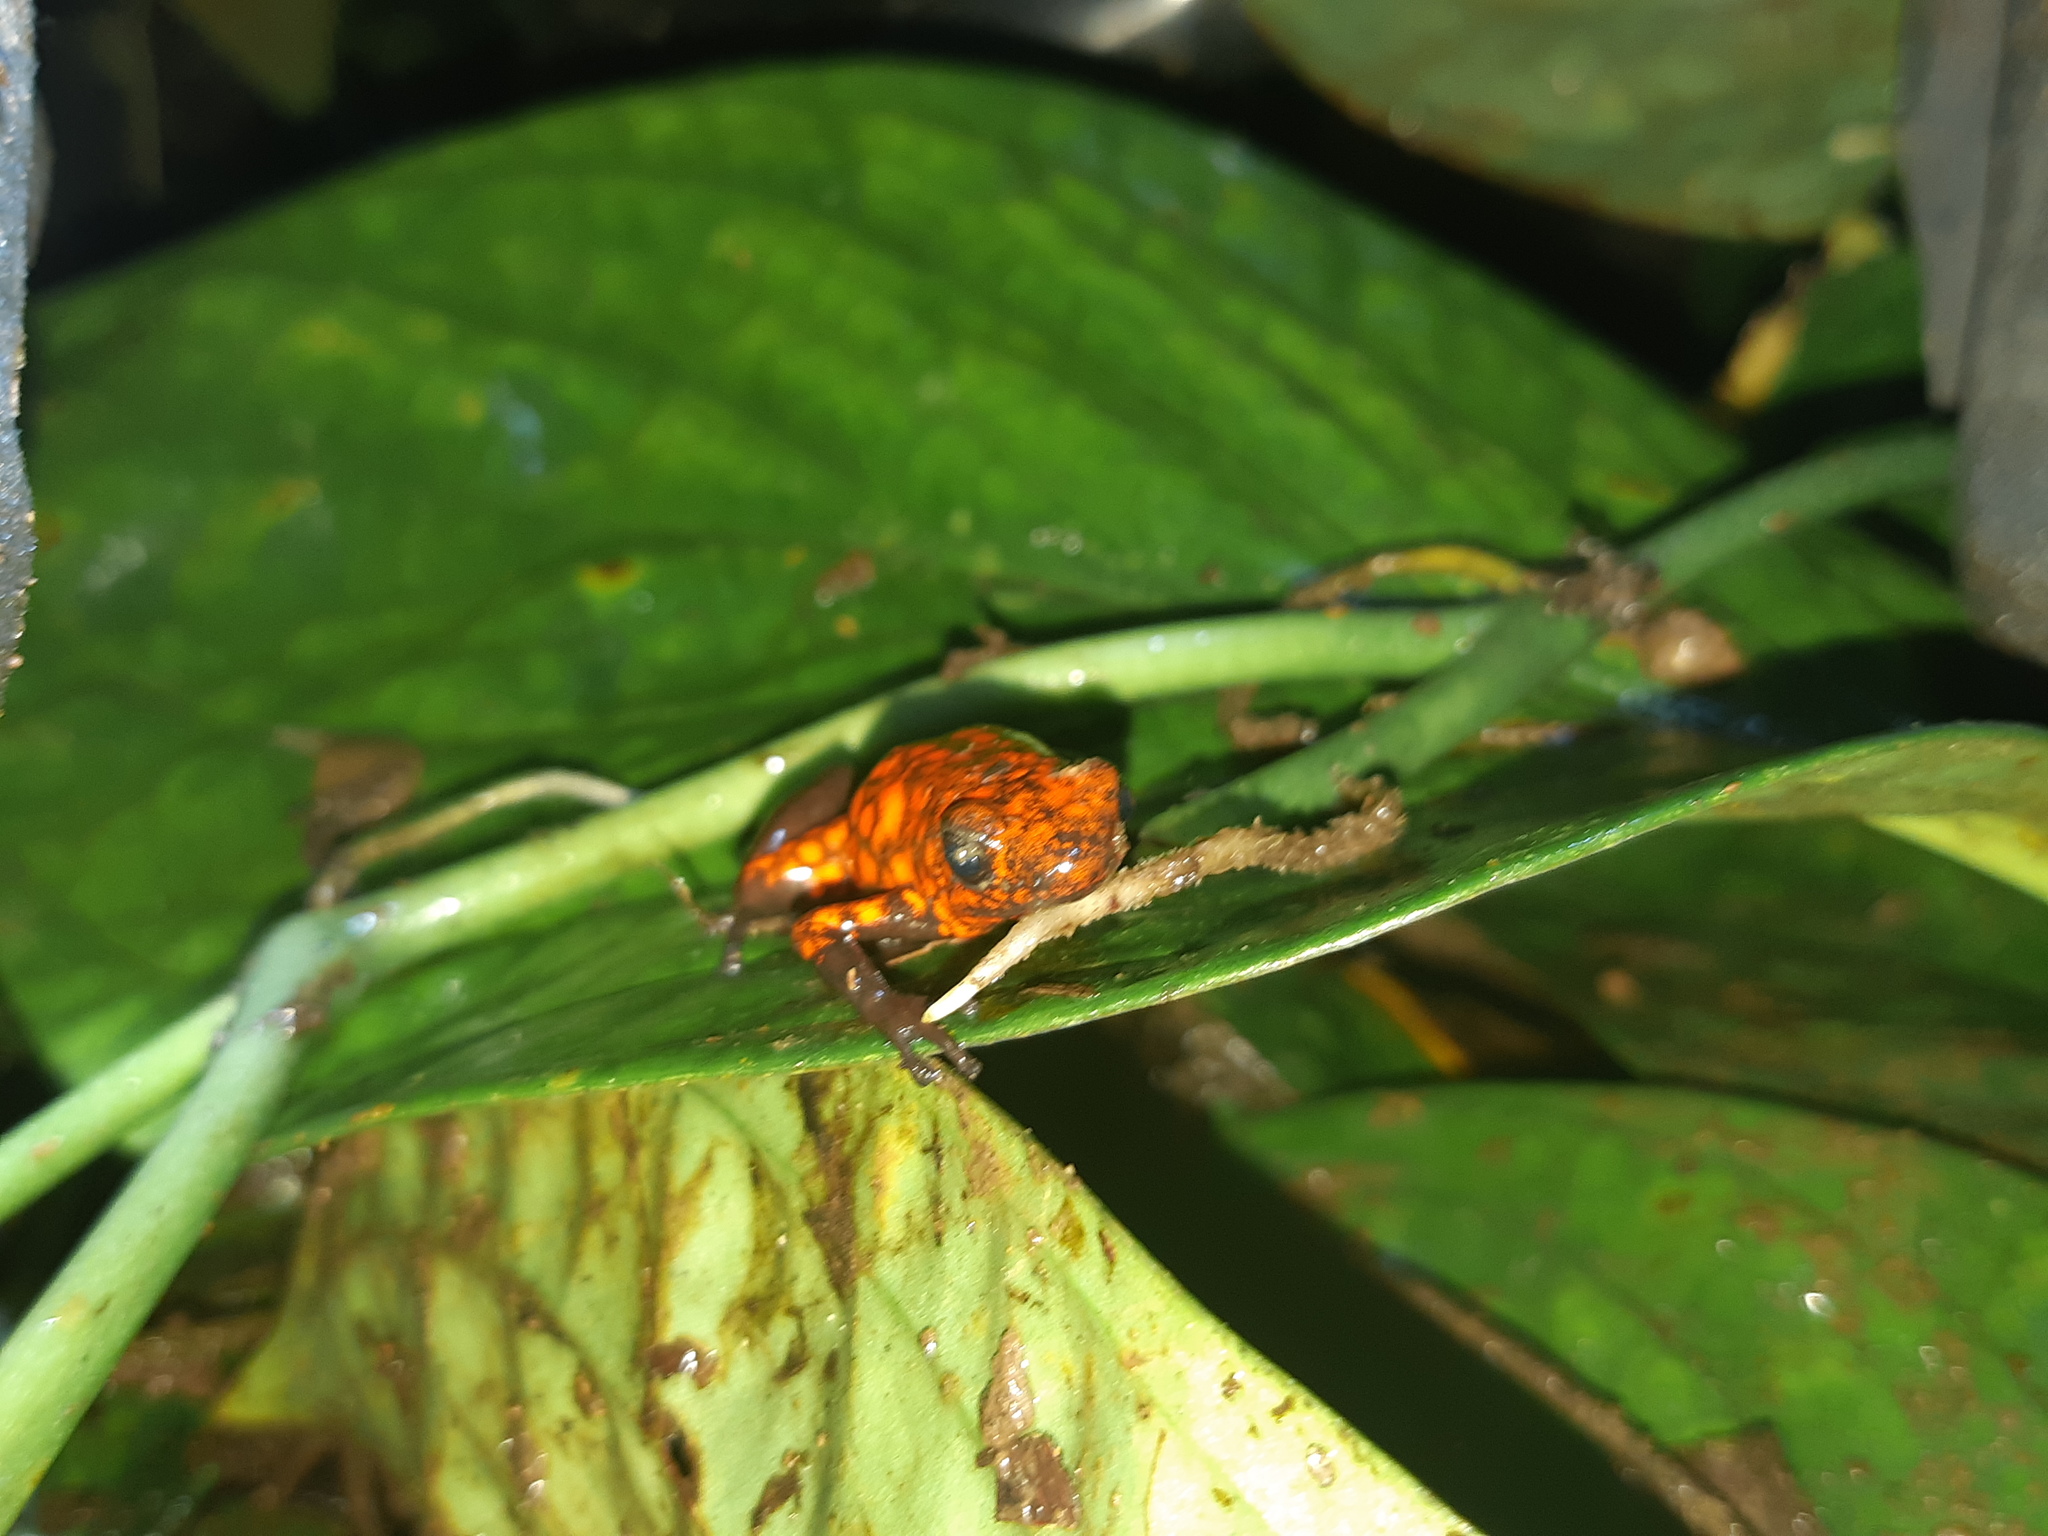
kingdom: Animalia
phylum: Chordata
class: Amphibia
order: Anura
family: Dendrobatidae
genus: Oophaga
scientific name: Oophaga sylvatica
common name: Little-devil poison frog
